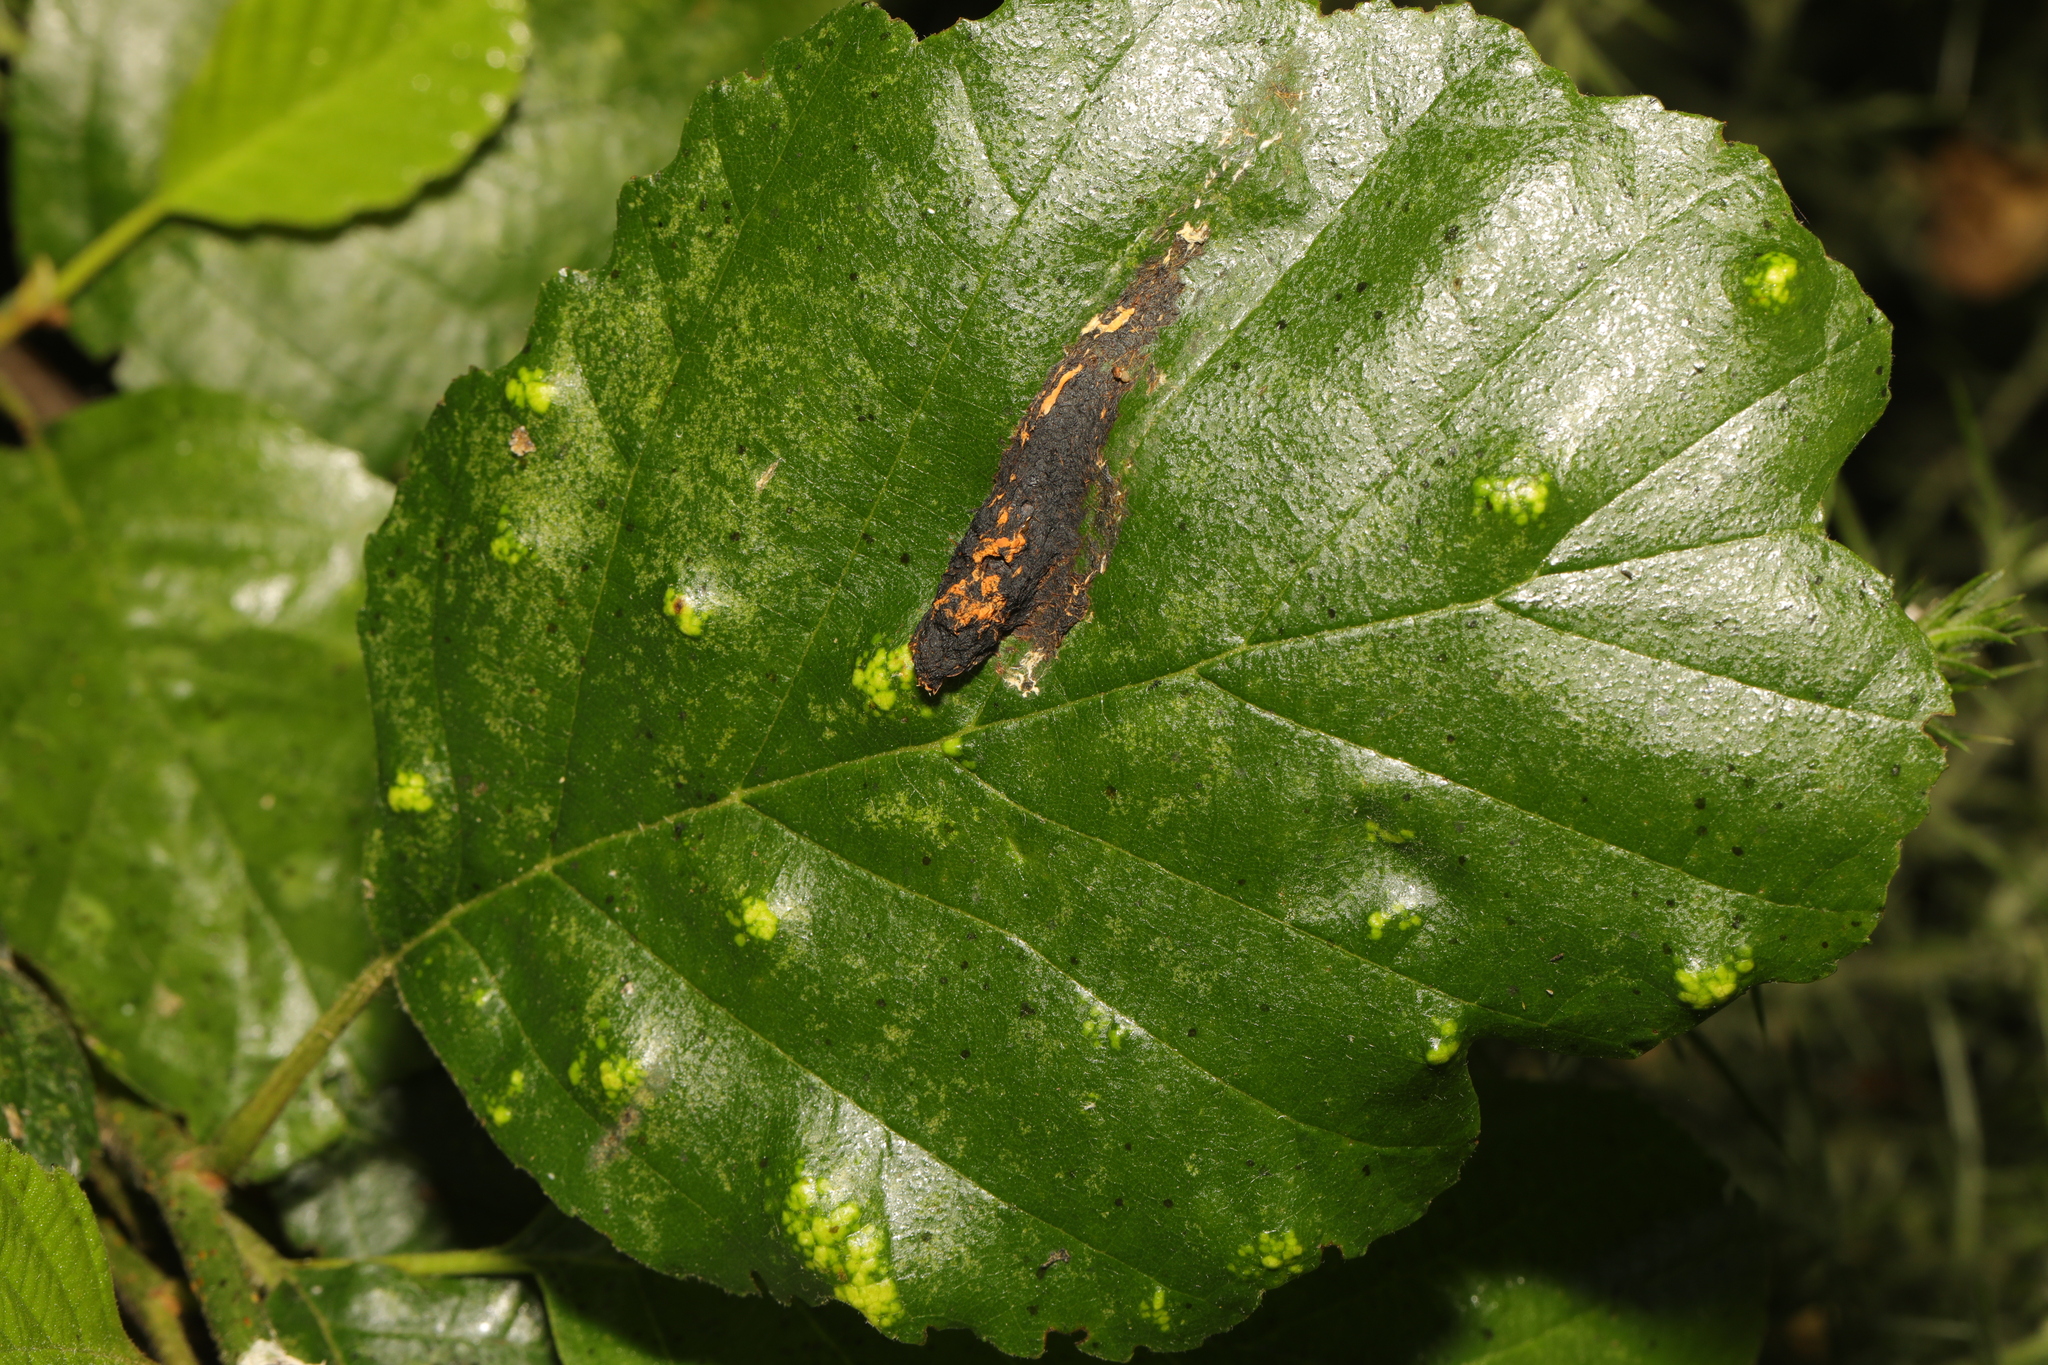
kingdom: Animalia
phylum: Arthropoda
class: Arachnida
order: Trombidiformes
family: Eriophyidae
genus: Acalitus
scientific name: Acalitus brevitarsus
